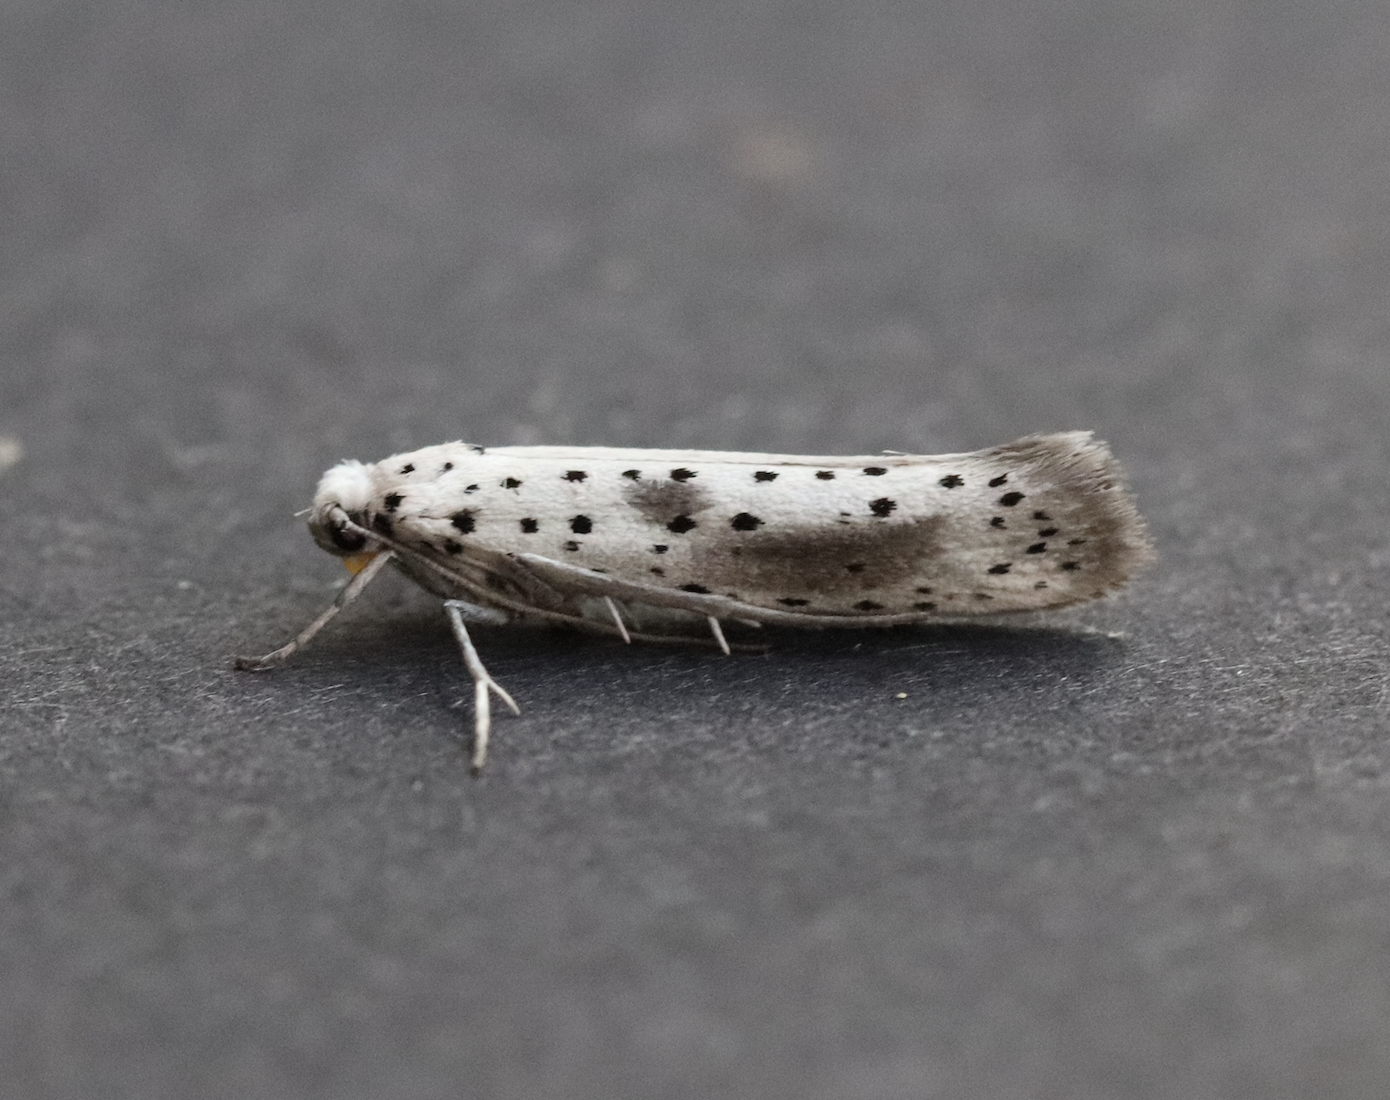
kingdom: Animalia
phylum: Arthropoda
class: Insecta
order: Lepidoptera
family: Yponomeutidae
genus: Yponomeuta
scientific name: Yponomeuta irrorella
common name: Scarce ermine
